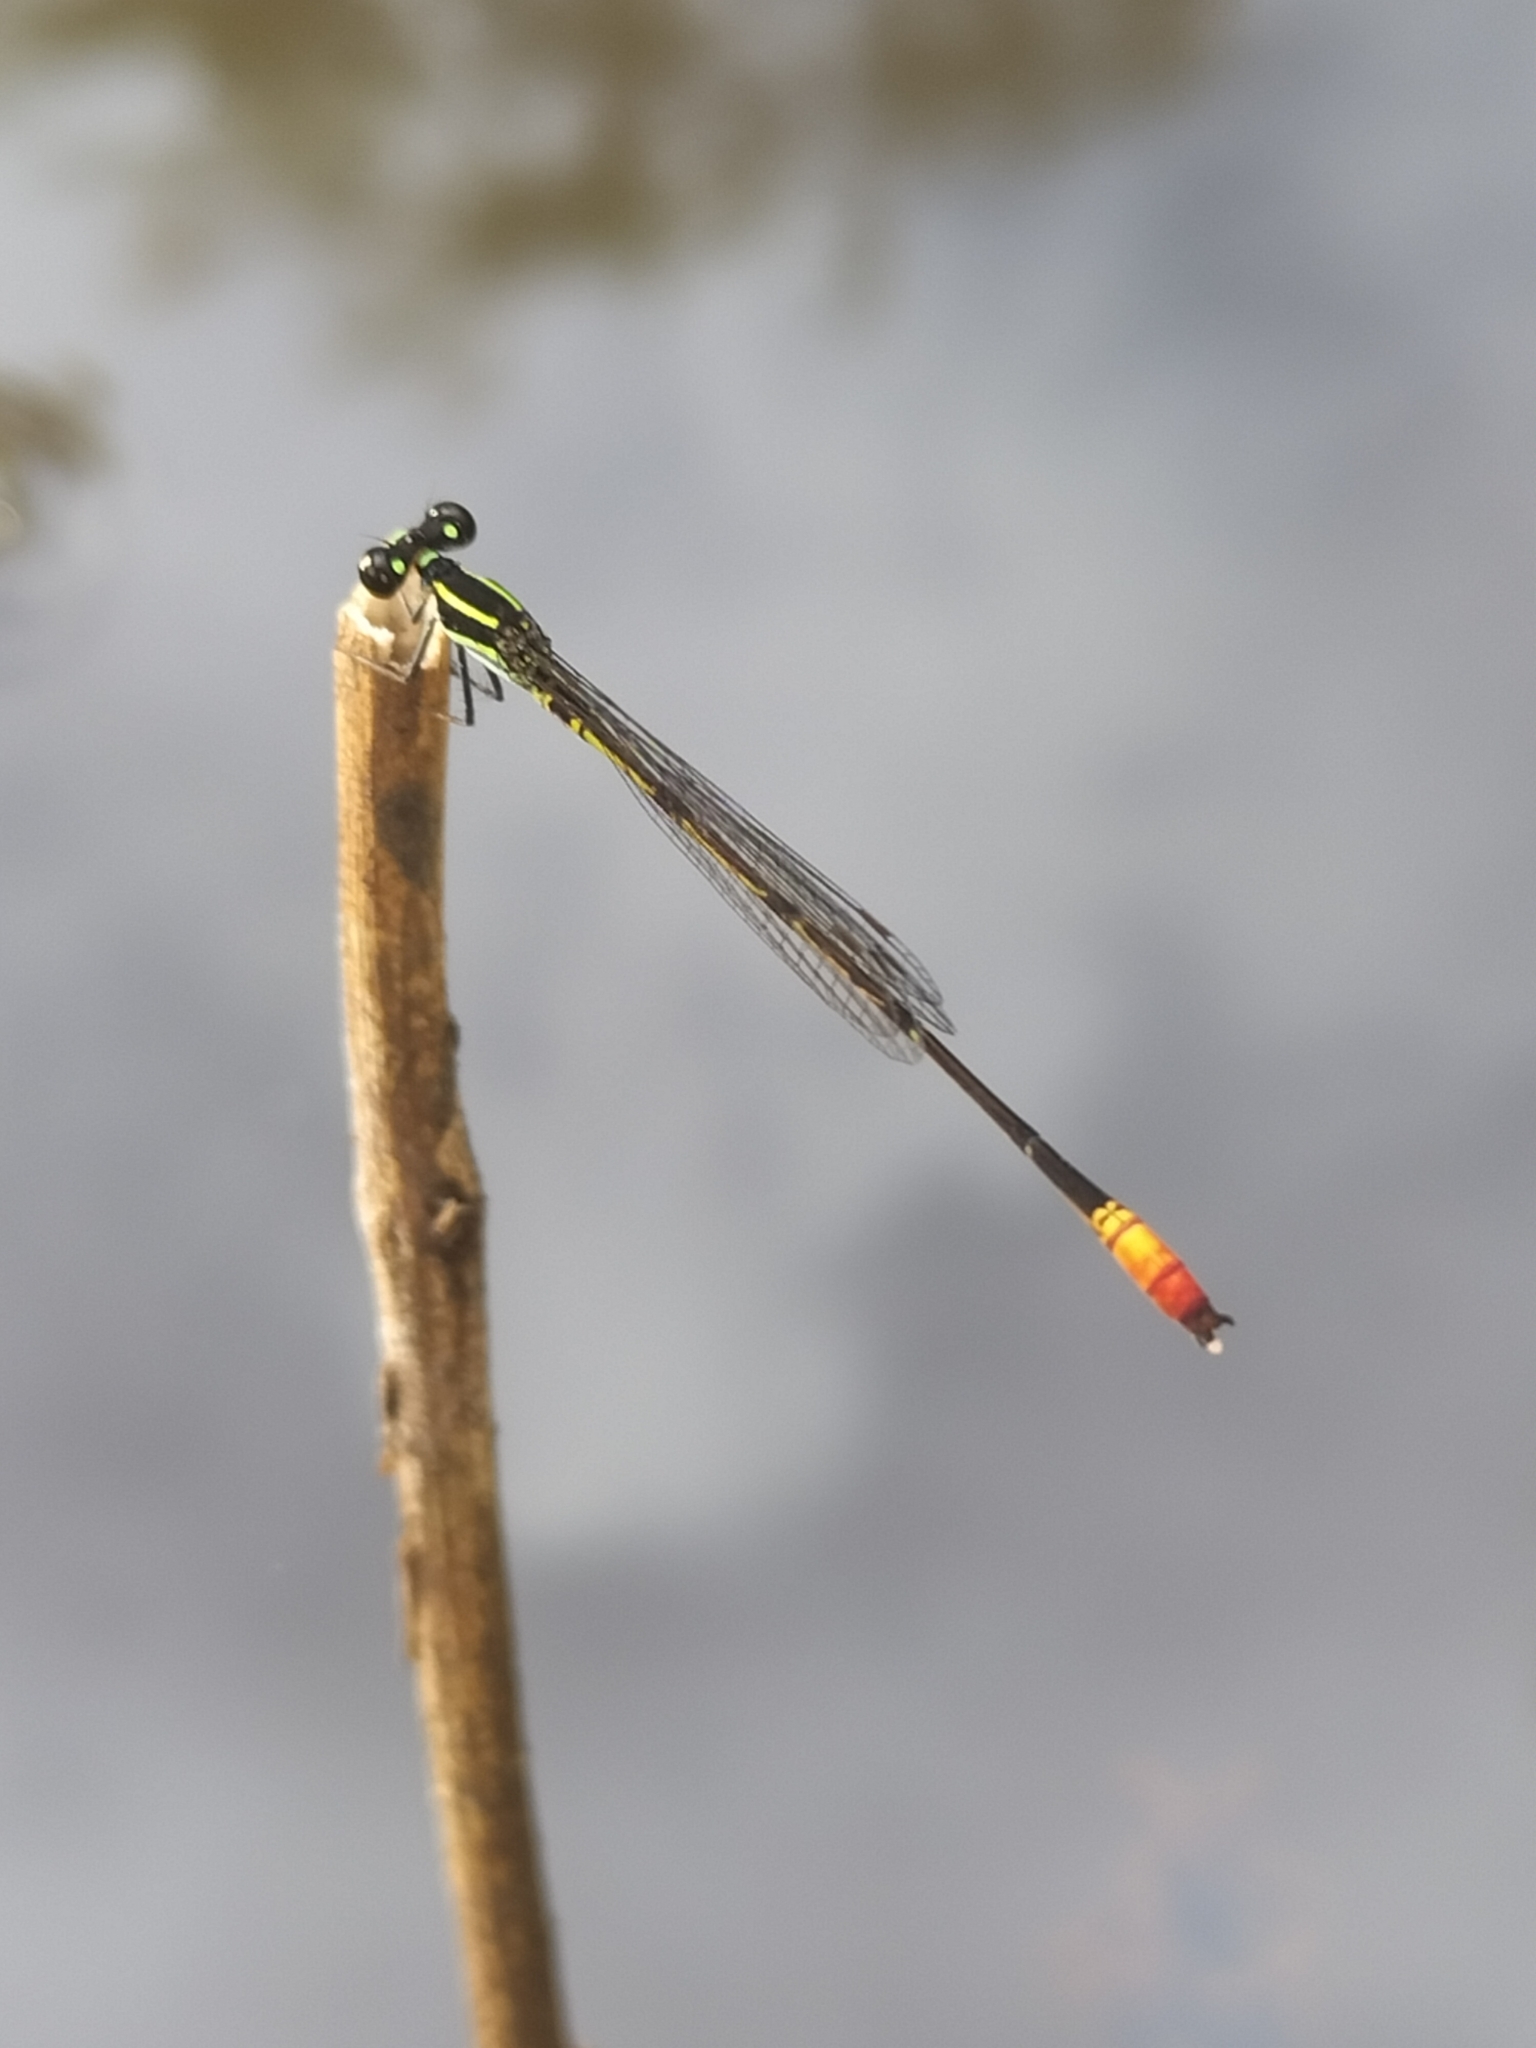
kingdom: Animalia
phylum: Arthropoda
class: Insecta
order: Odonata
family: Coenagrionidae
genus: Argiocnemis
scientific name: Argiocnemis rubescens
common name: Red-tipped shadefly
